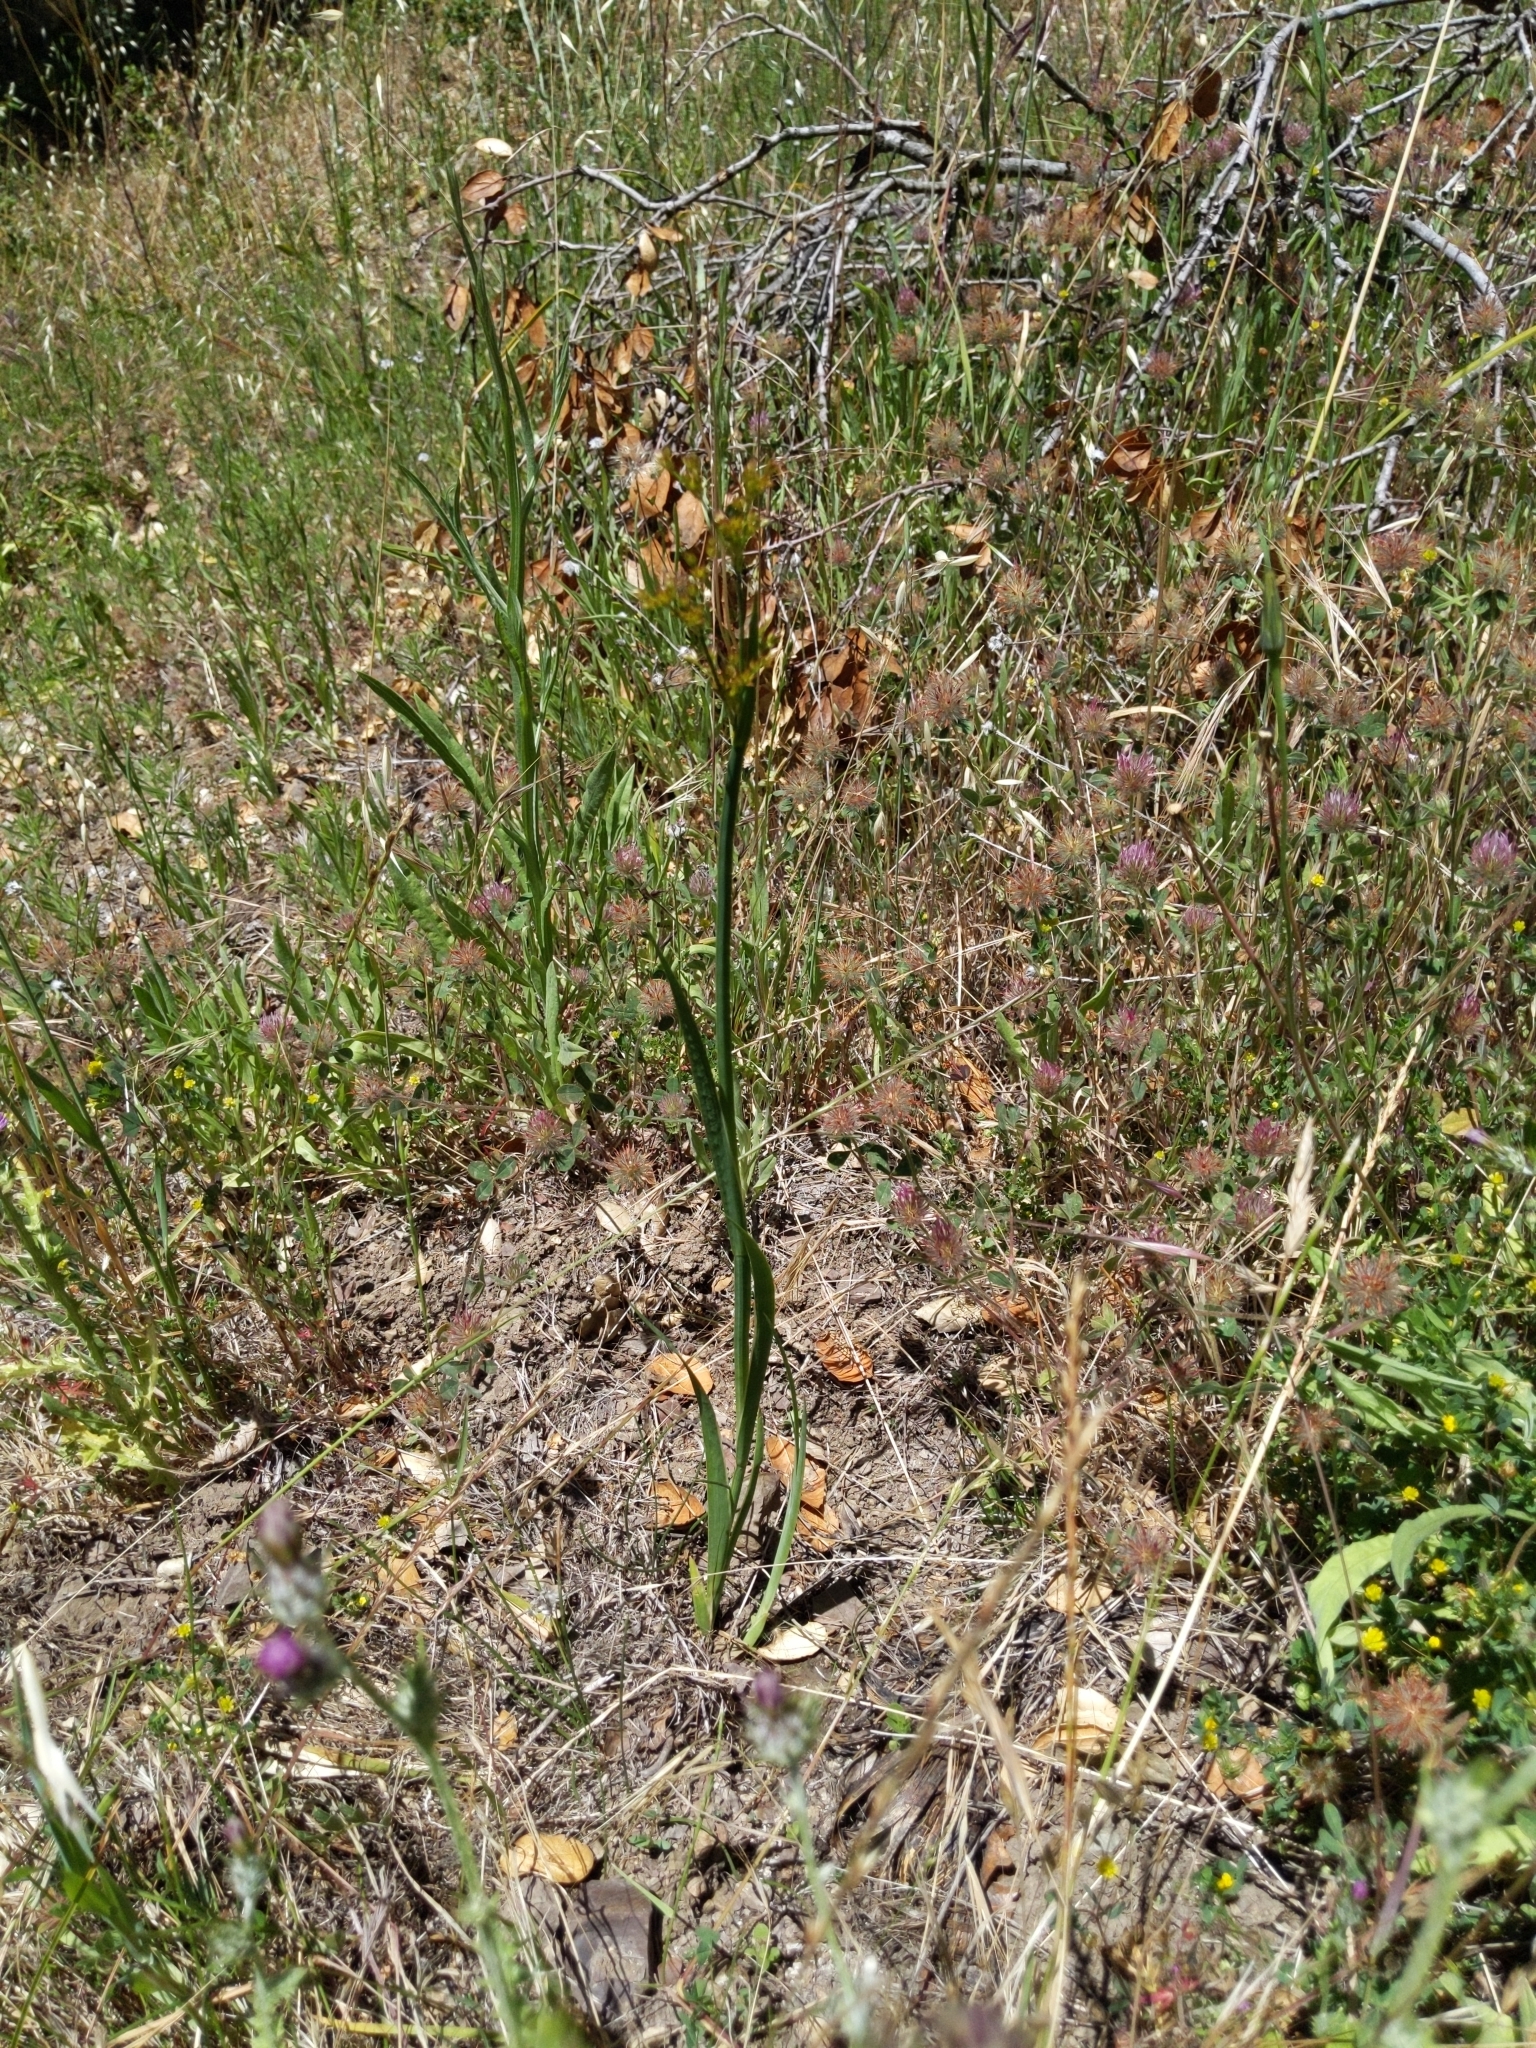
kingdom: Plantae
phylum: Tracheophyta
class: Liliopsida
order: Poales
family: Juncaceae
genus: Juncus
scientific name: Juncus xiphioides
